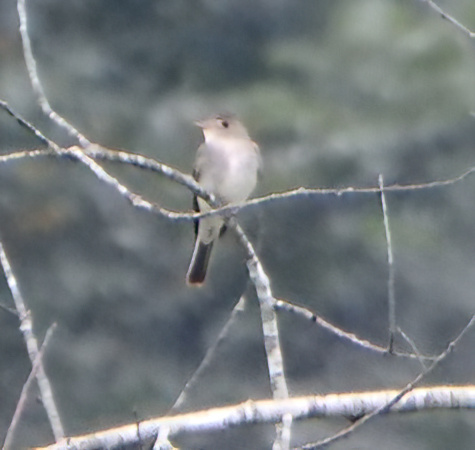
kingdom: Animalia
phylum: Chordata
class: Aves
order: Passeriformes
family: Tyrannidae
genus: Contopus
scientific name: Contopus virens
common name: Eastern wood-pewee
